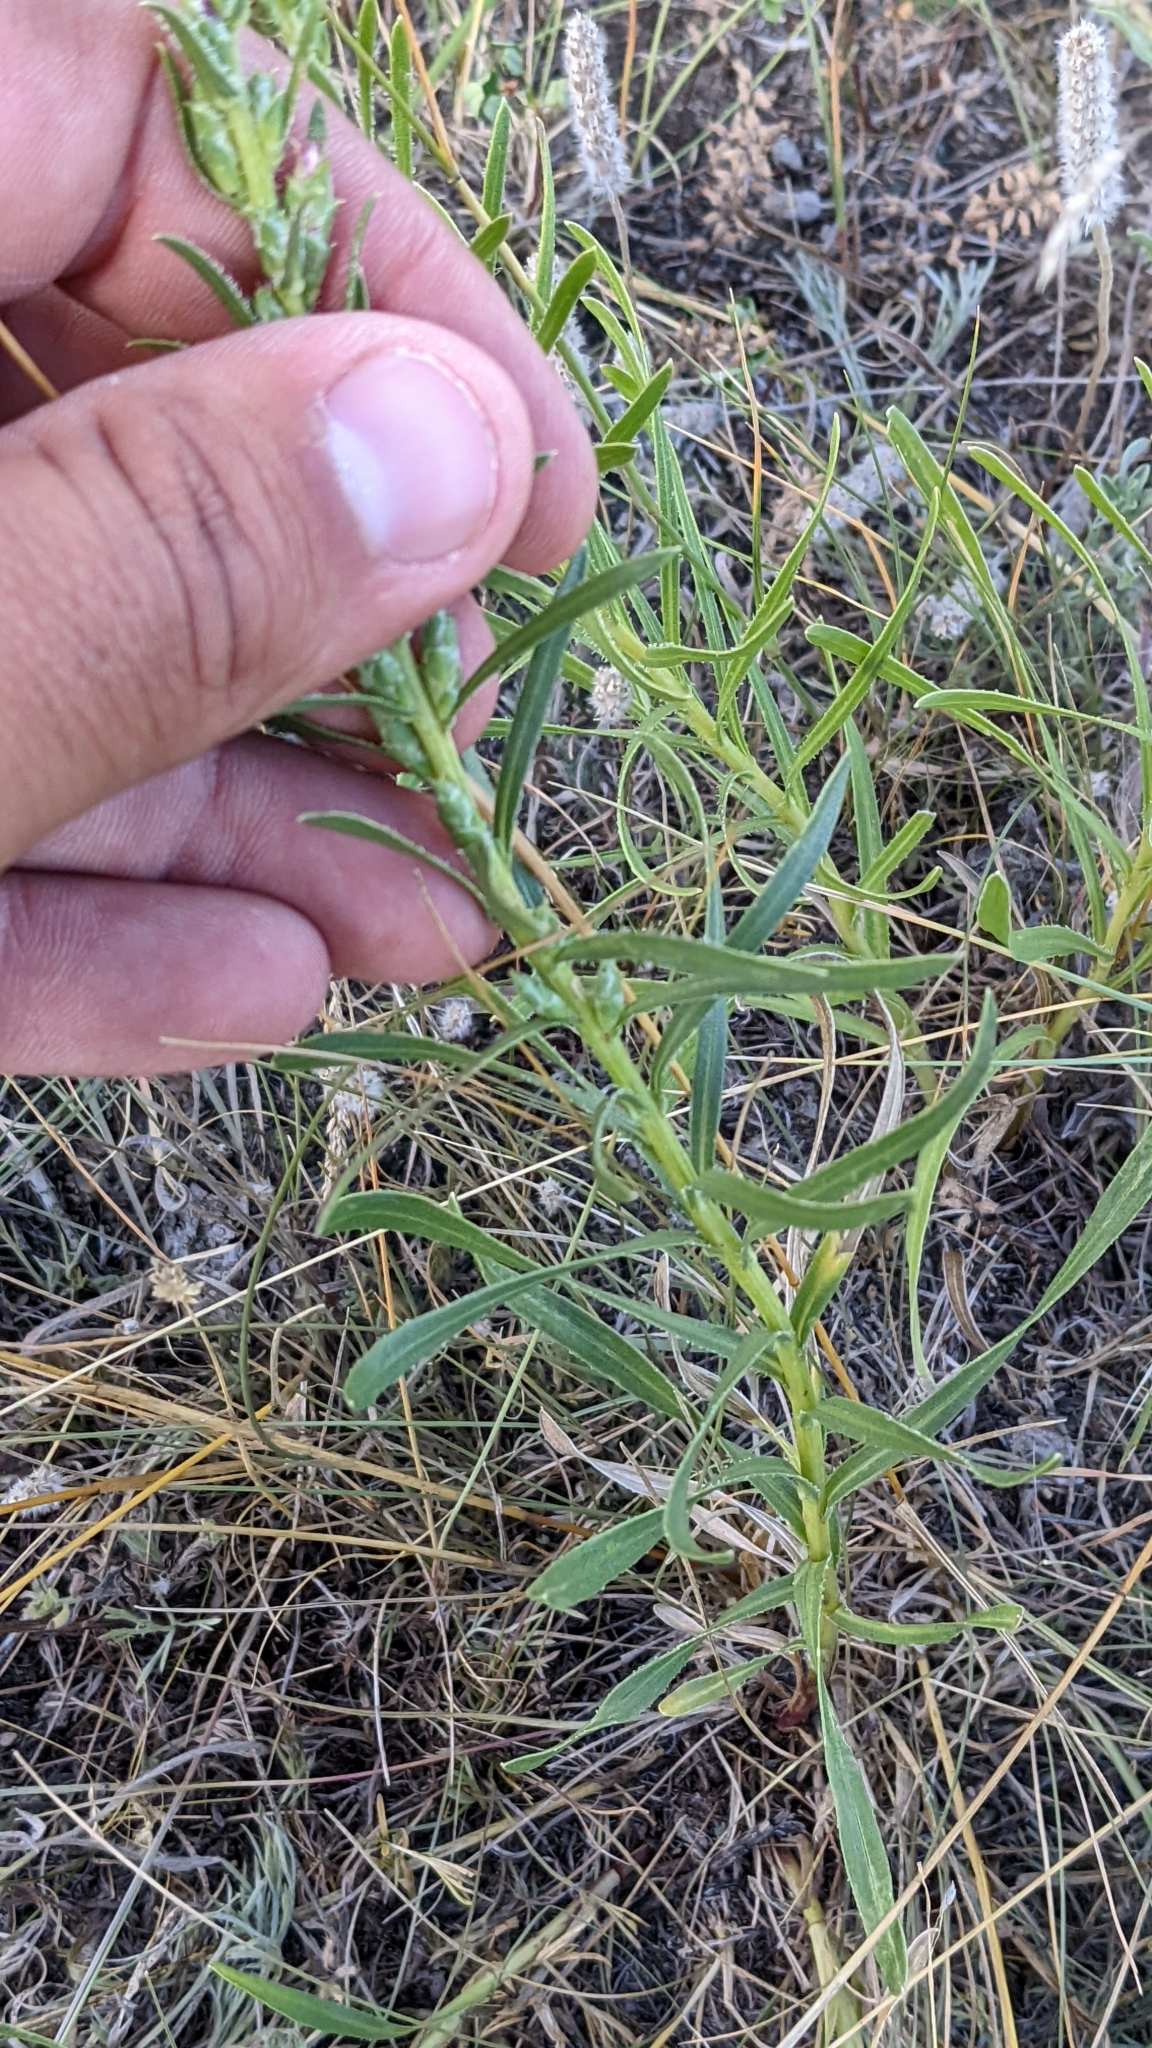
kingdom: Plantae
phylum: Tracheophyta
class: Magnoliopsida
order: Asterales
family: Asteraceae
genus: Liatris
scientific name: Liatris punctata
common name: Dotted gayfeather
